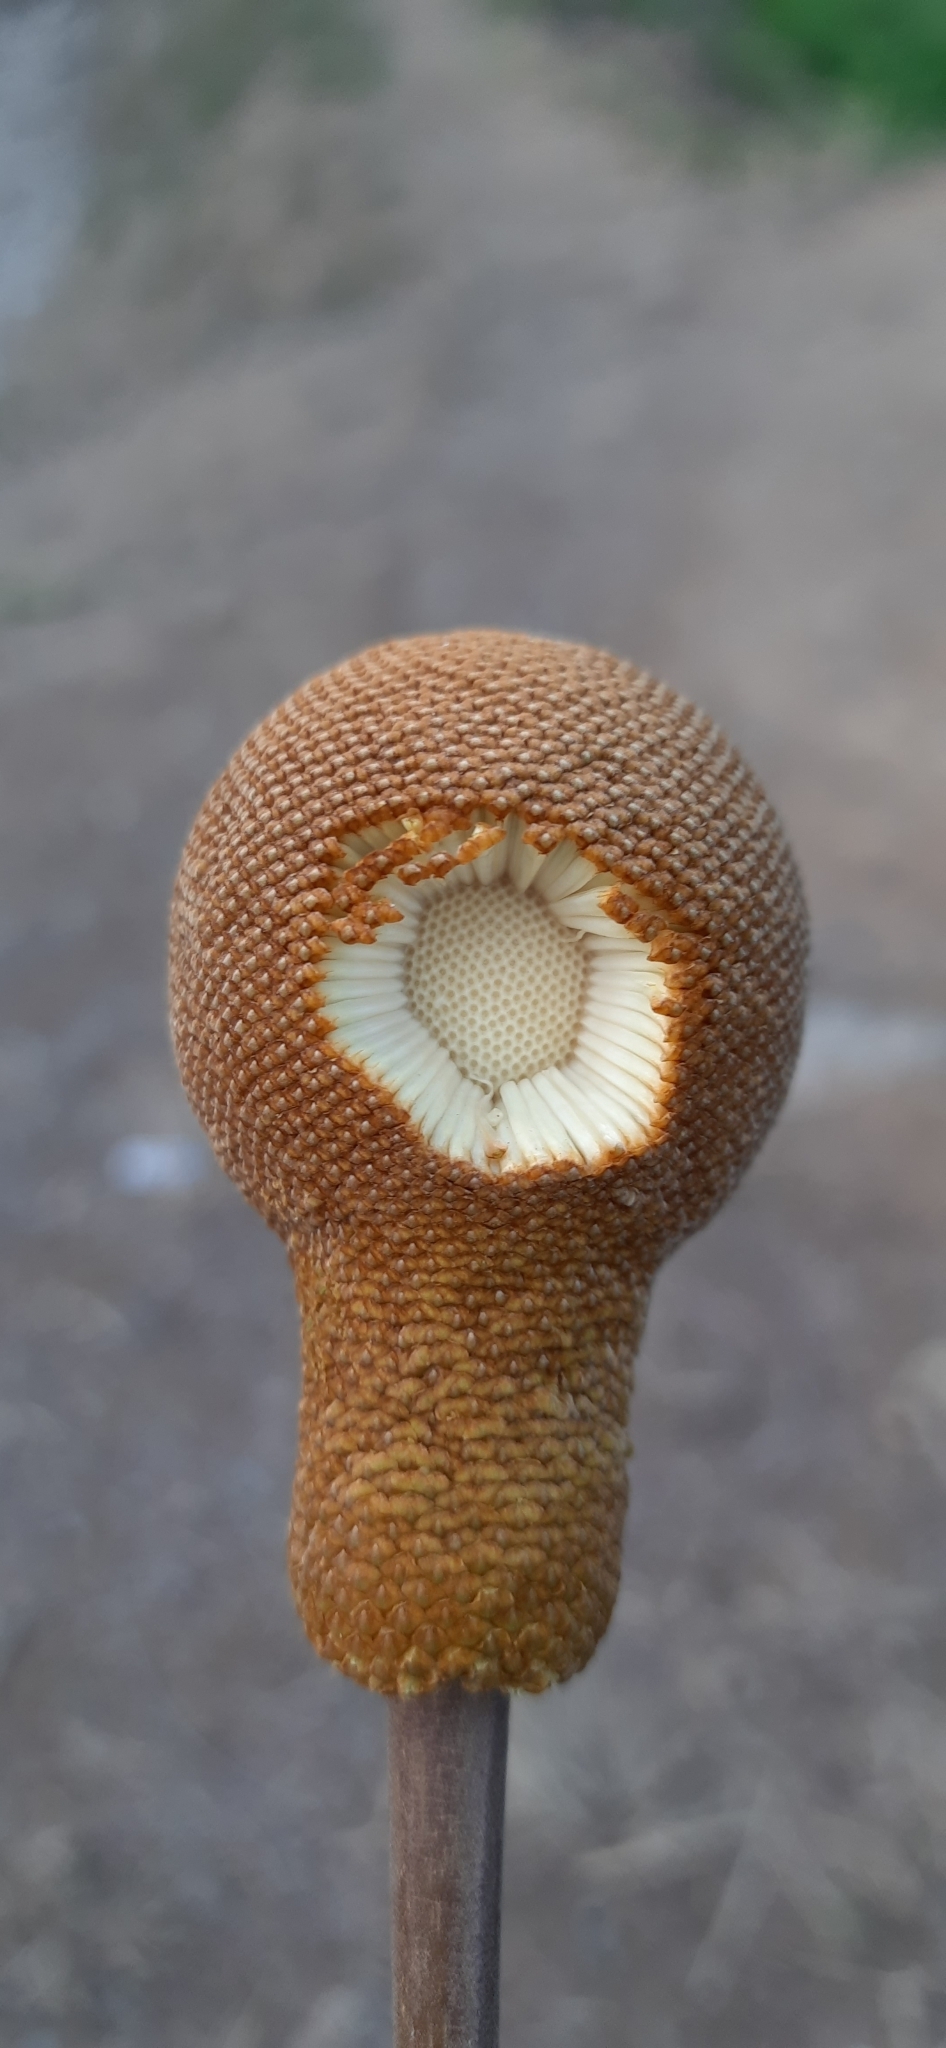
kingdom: Plantae
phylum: Tracheophyta
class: Magnoliopsida
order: Fabales
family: Fabaceae
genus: Parkia
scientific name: Parkia biglandulosa
